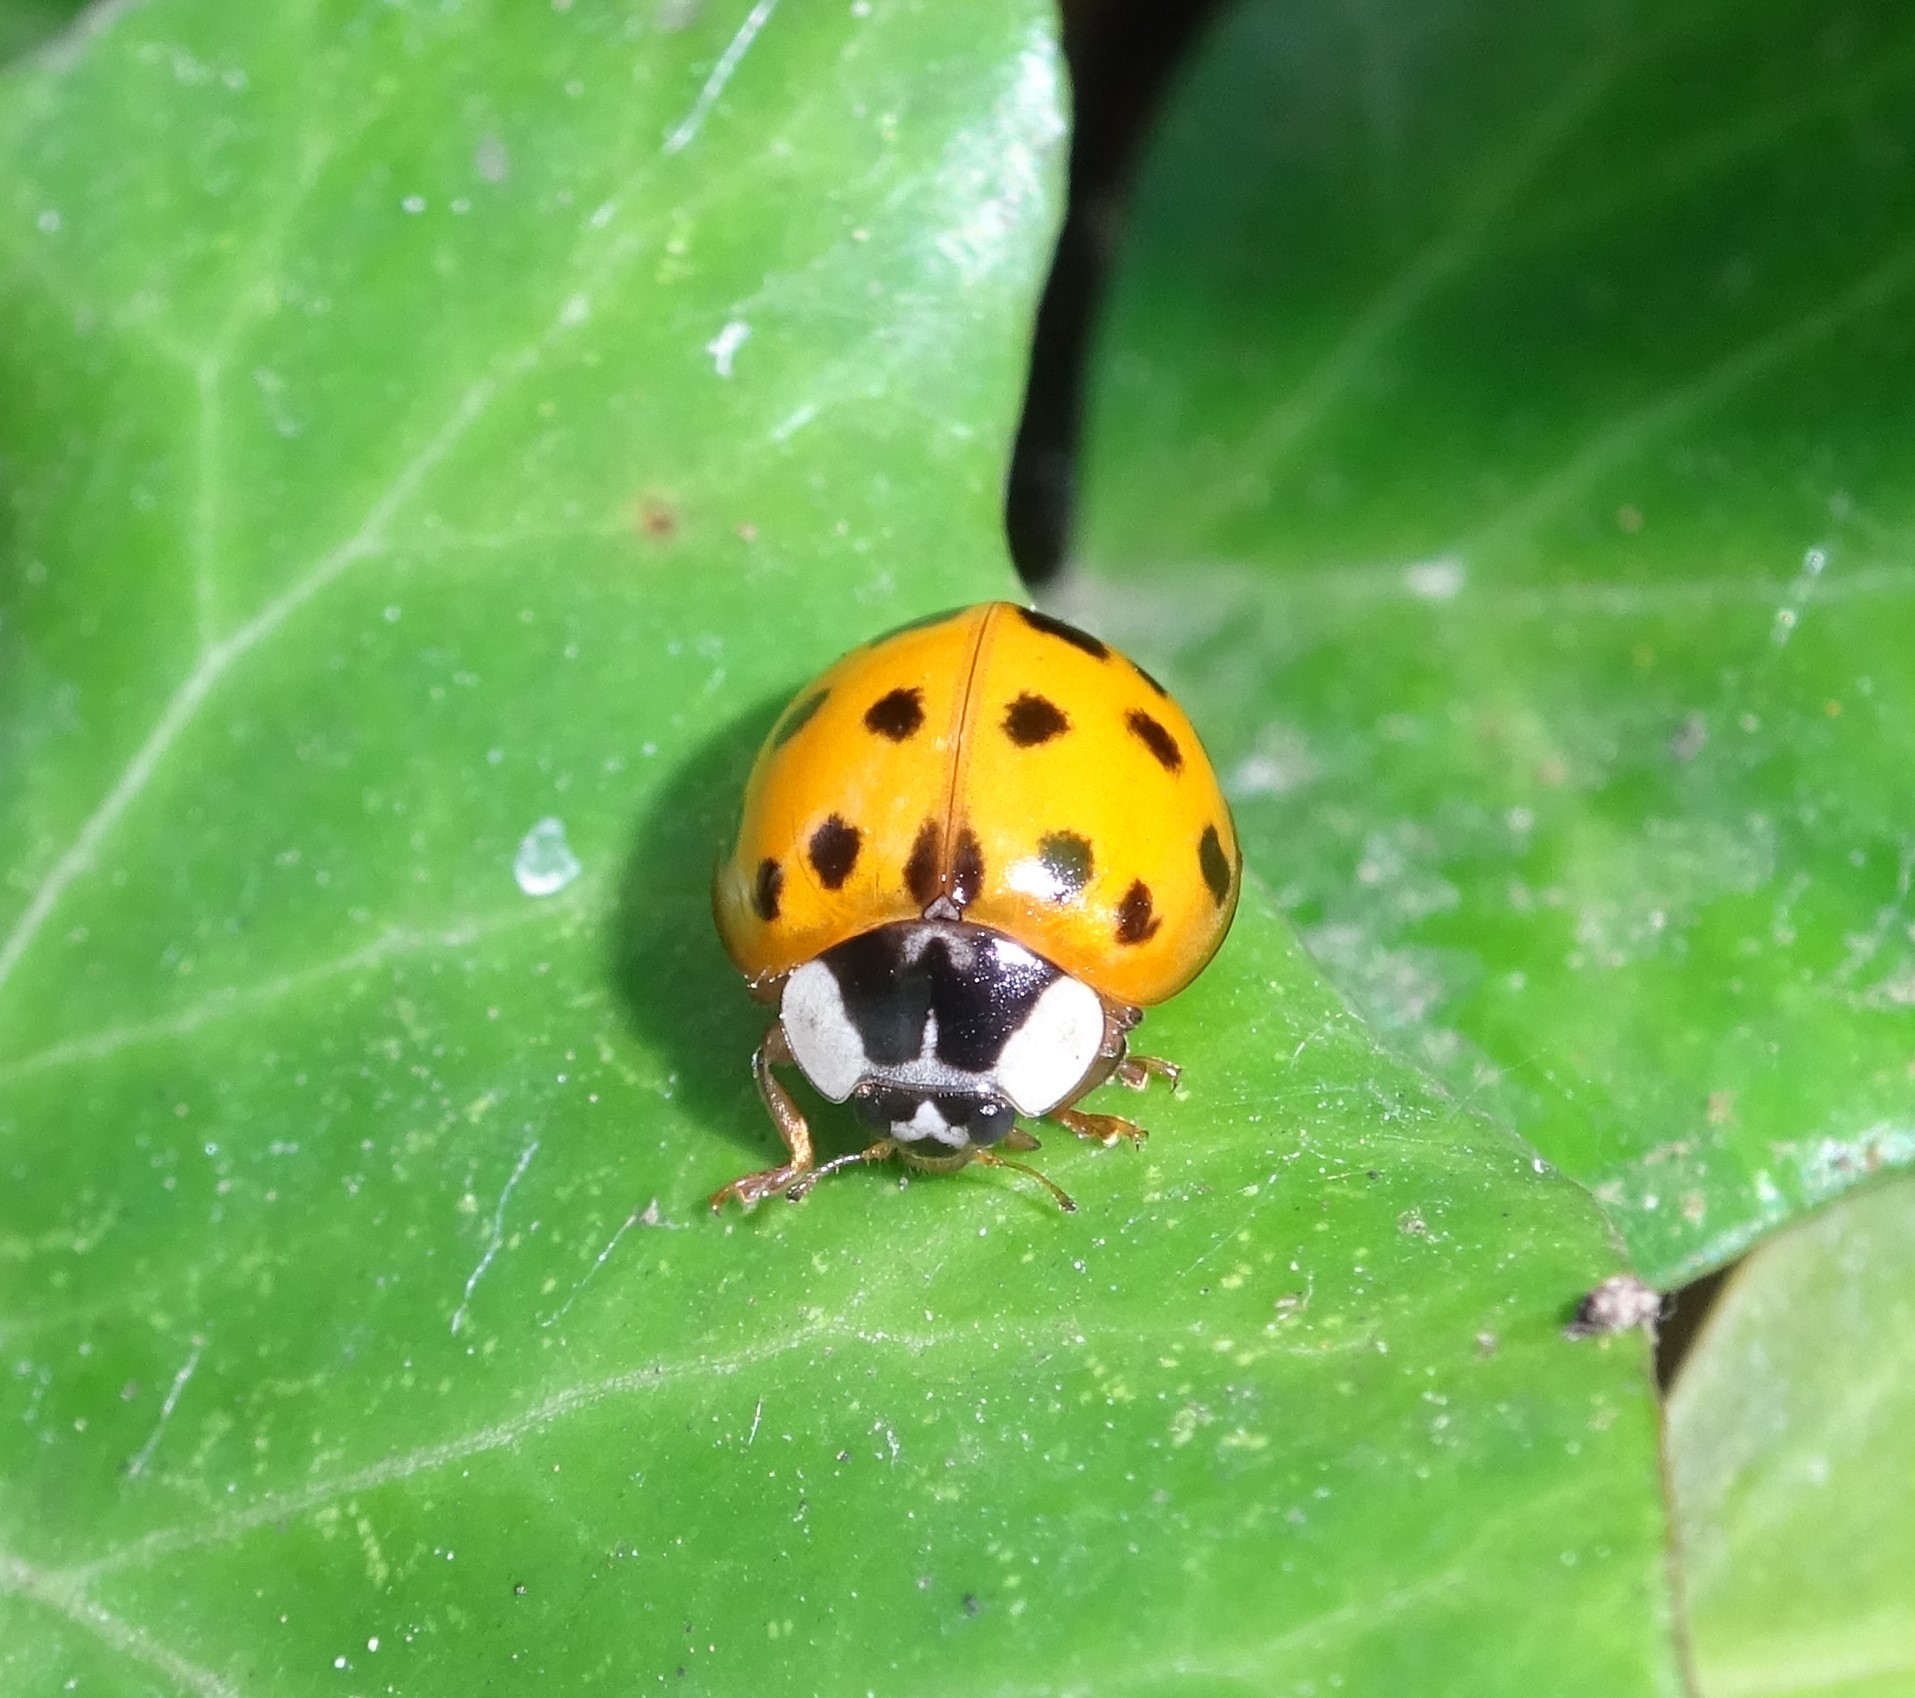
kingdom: Animalia
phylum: Arthropoda
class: Insecta
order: Coleoptera
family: Coccinellidae
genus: Harmonia
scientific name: Harmonia axyridis
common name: Harlequin ladybird
